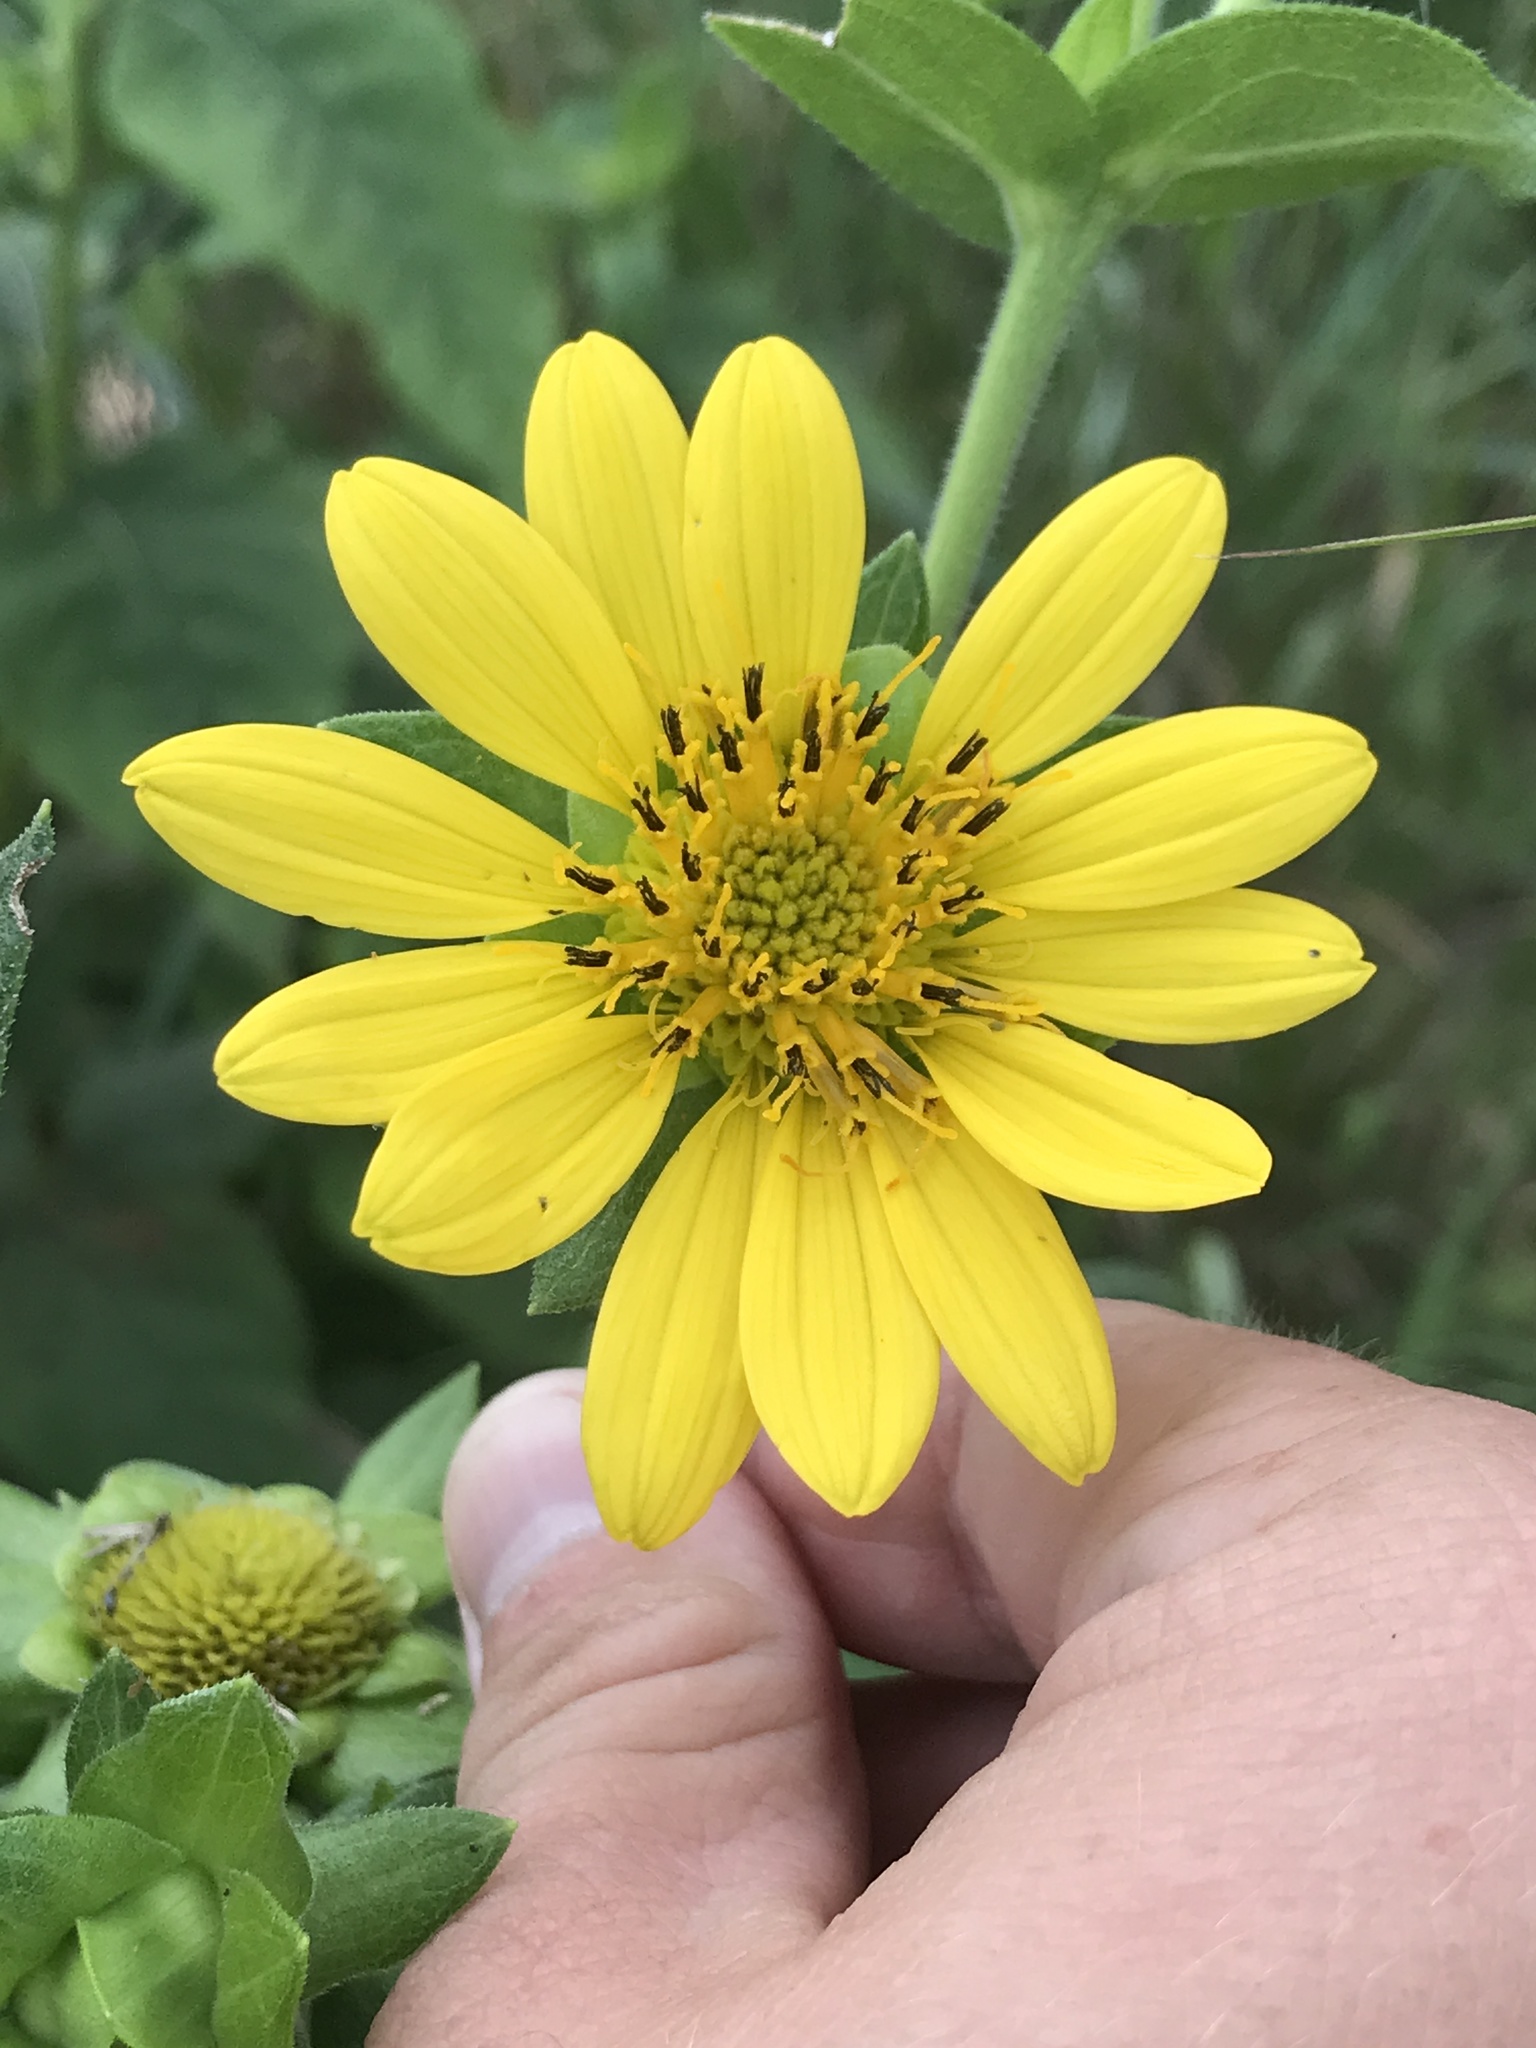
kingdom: Plantae
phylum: Tracheophyta
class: Magnoliopsida
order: Asterales
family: Asteraceae
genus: Silphium
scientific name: Silphium asteriscus
